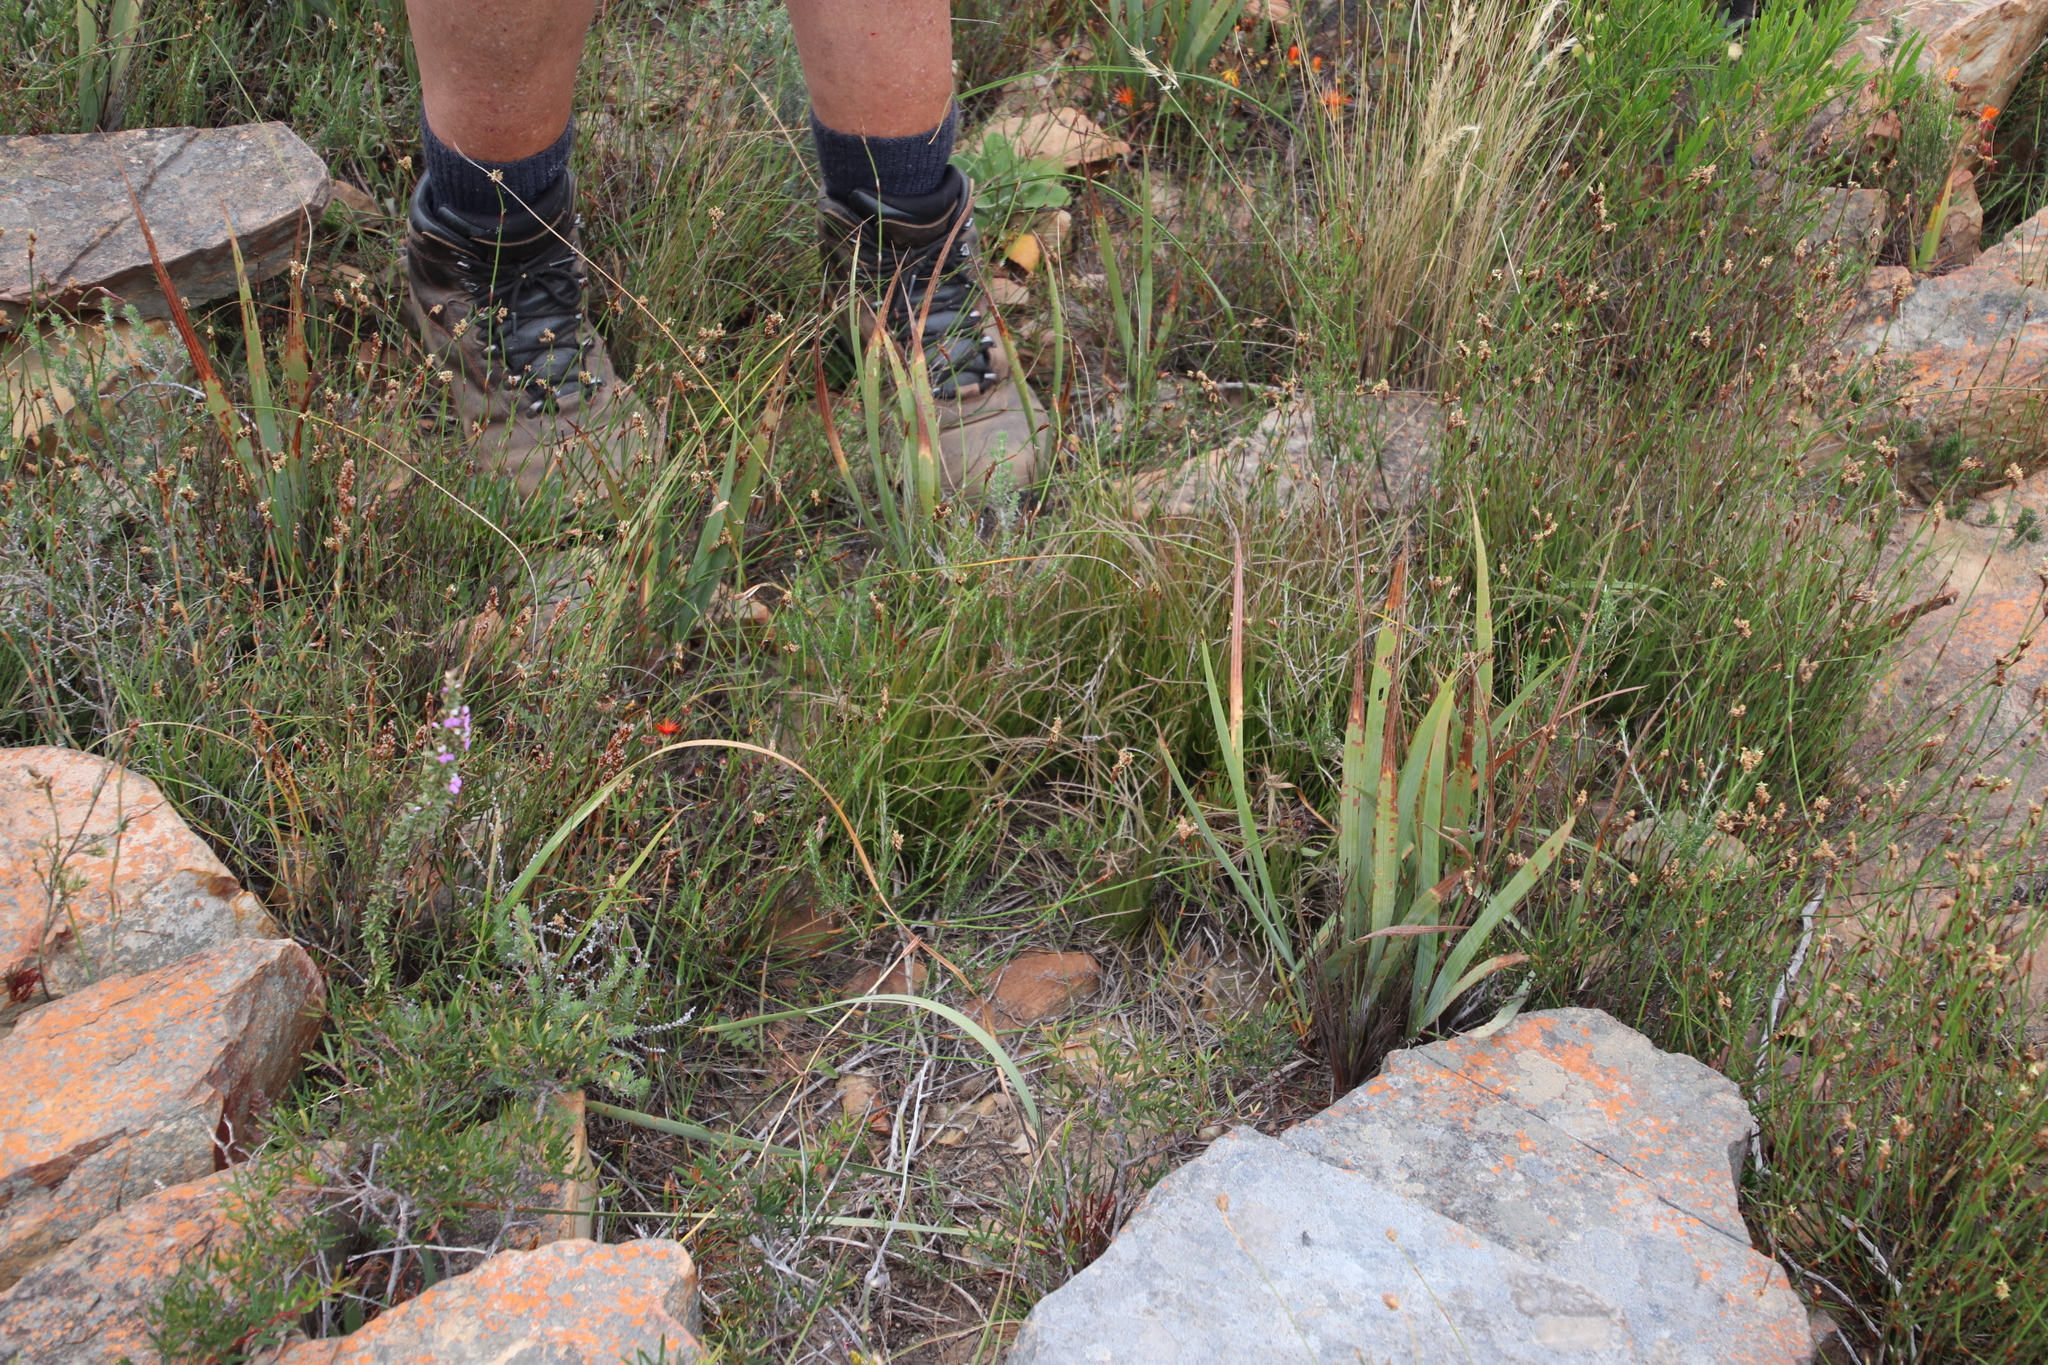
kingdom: Plantae
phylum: Tracheophyta
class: Magnoliopsida
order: Proteales
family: Proteaceae
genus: Protea
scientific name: Protea restionifolia
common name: Reed-leaf sugarbush
